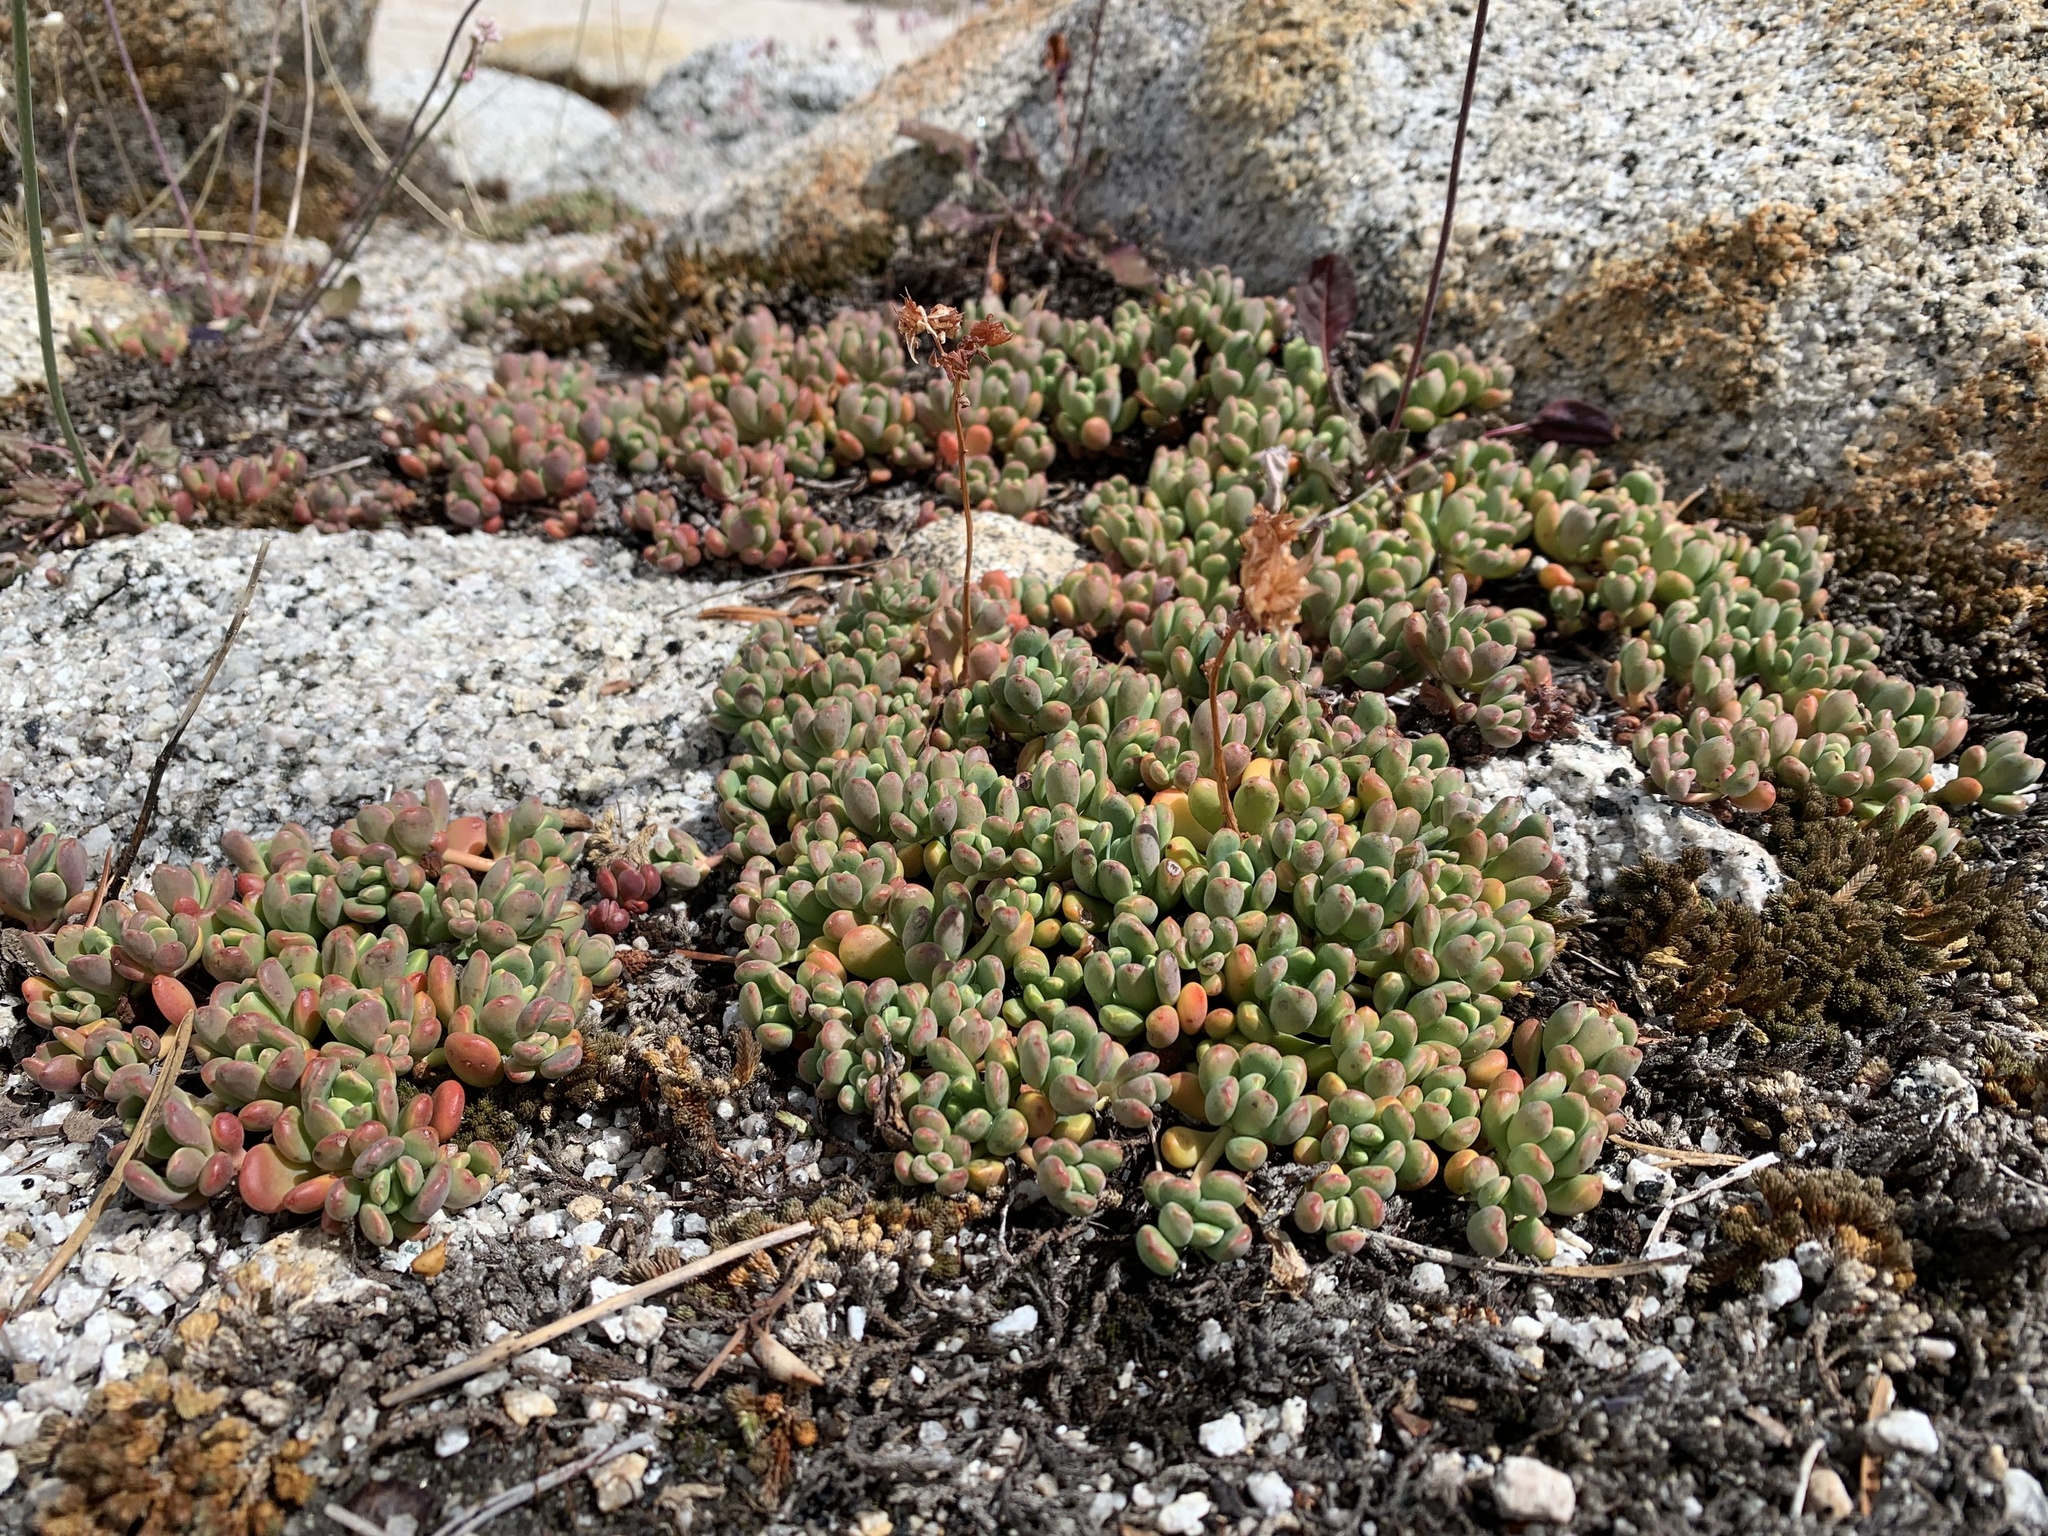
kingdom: Plantae
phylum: Tracheophyta
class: Magnoliopsida
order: Saxifragales
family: Crassulaceae
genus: Sedum
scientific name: Sedum obtusatum
